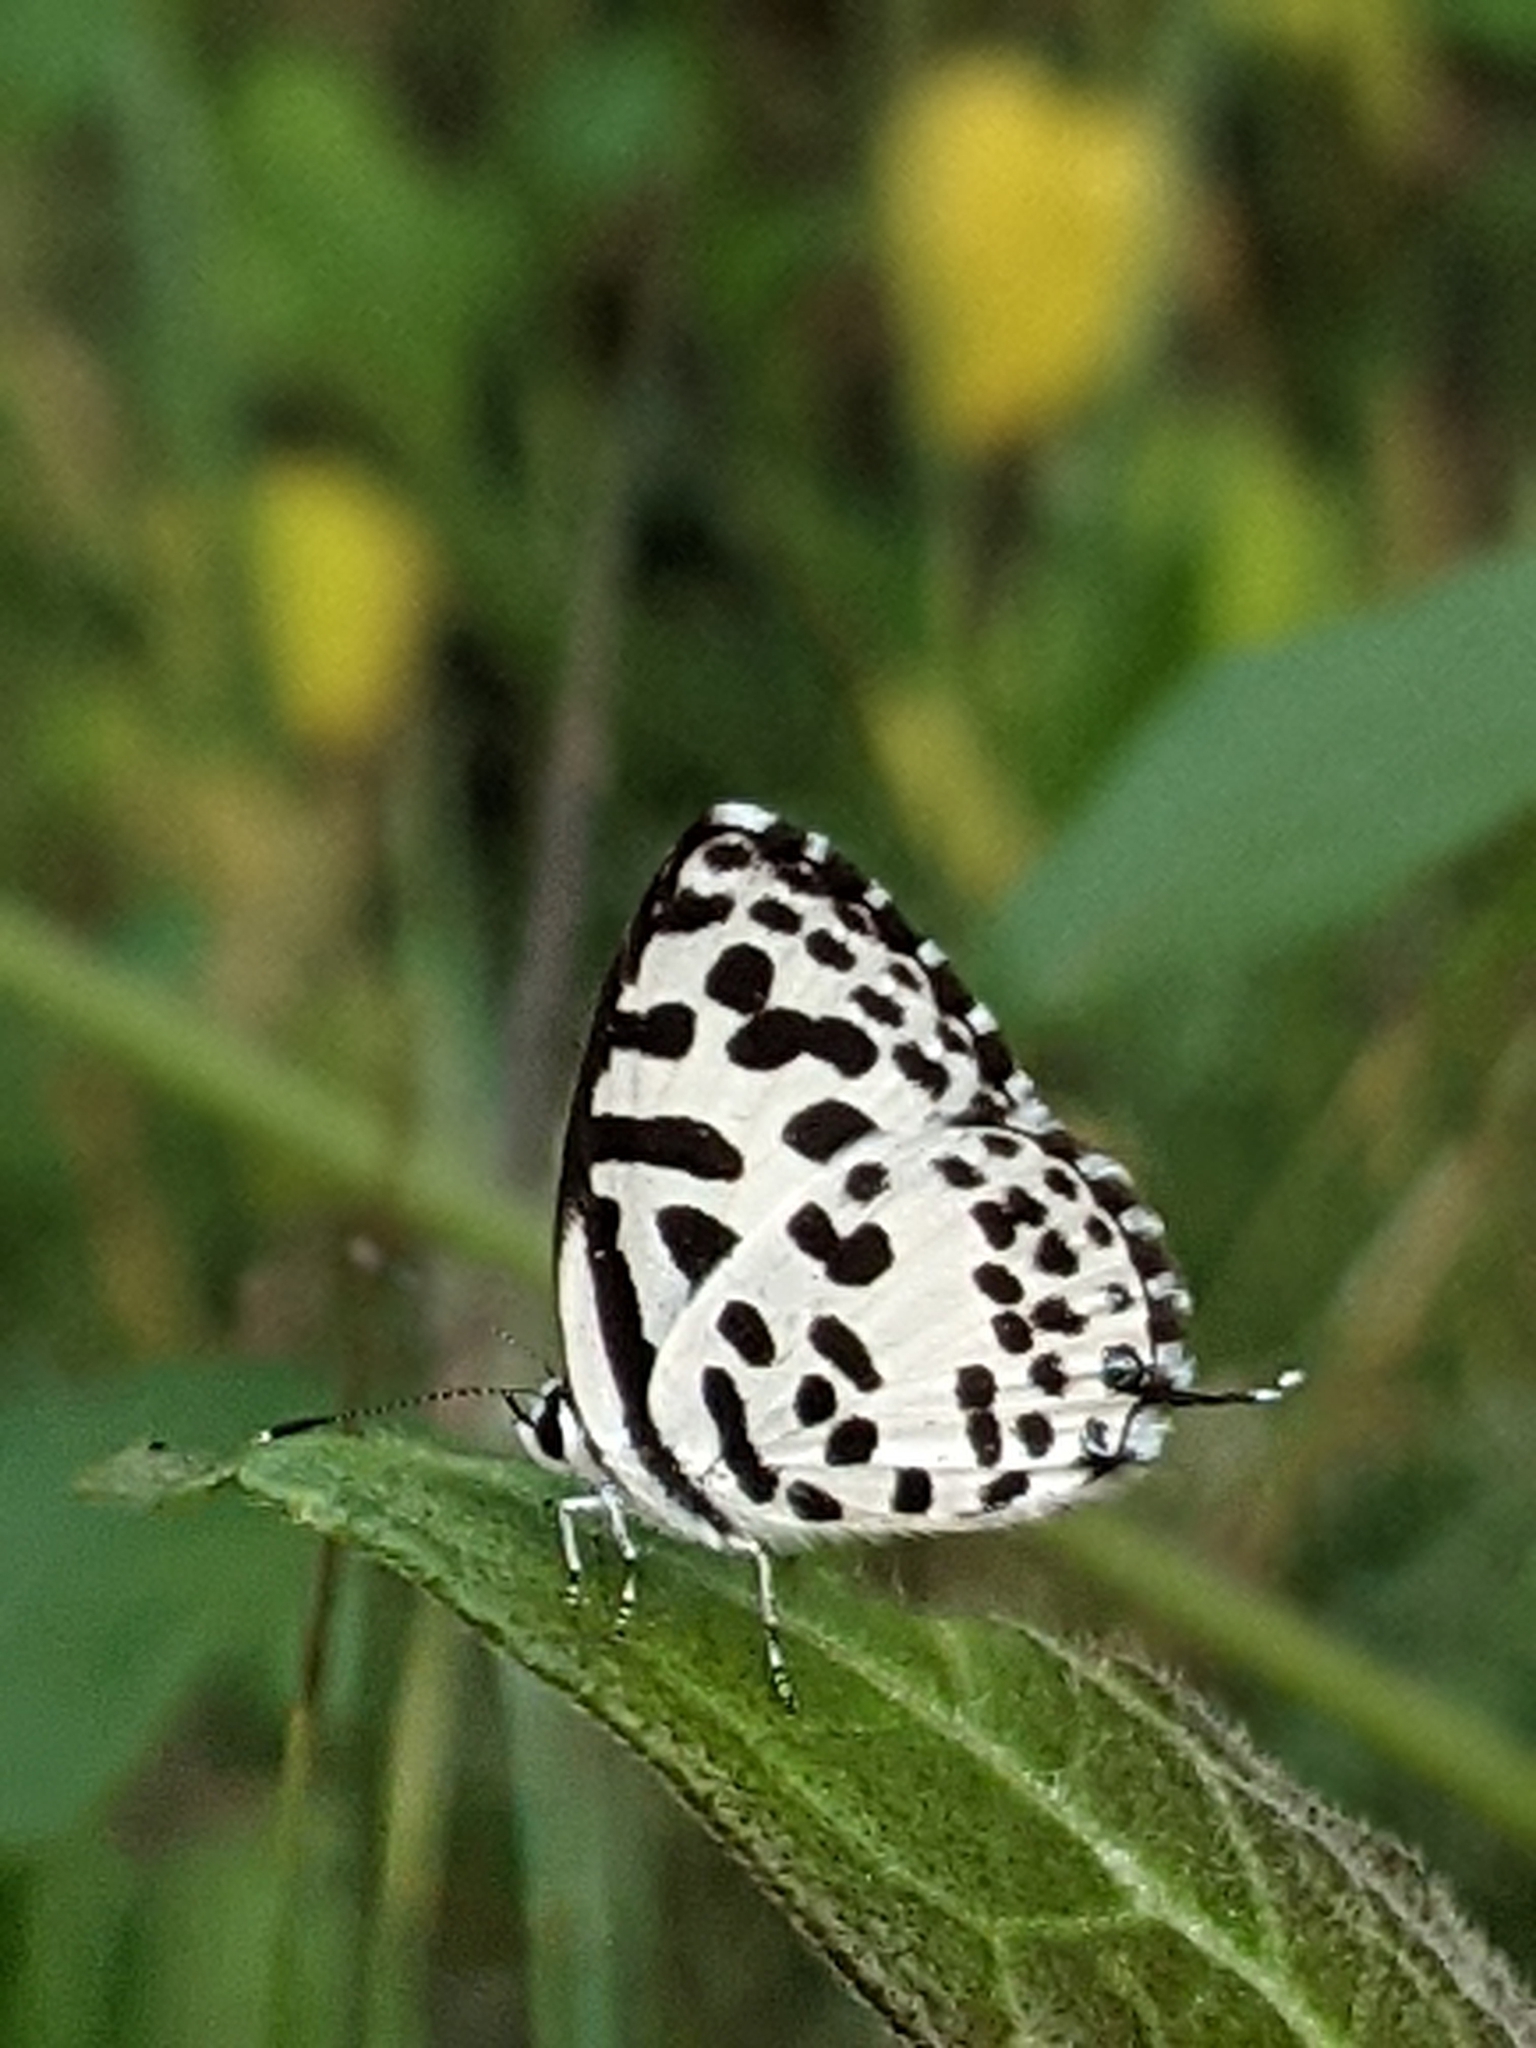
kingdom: Animalia
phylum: Arthropoda
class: Insecta
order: Lepidoptera
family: Lycaenidae
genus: Castalius
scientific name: Castalius rosimon
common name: Common pierrot
